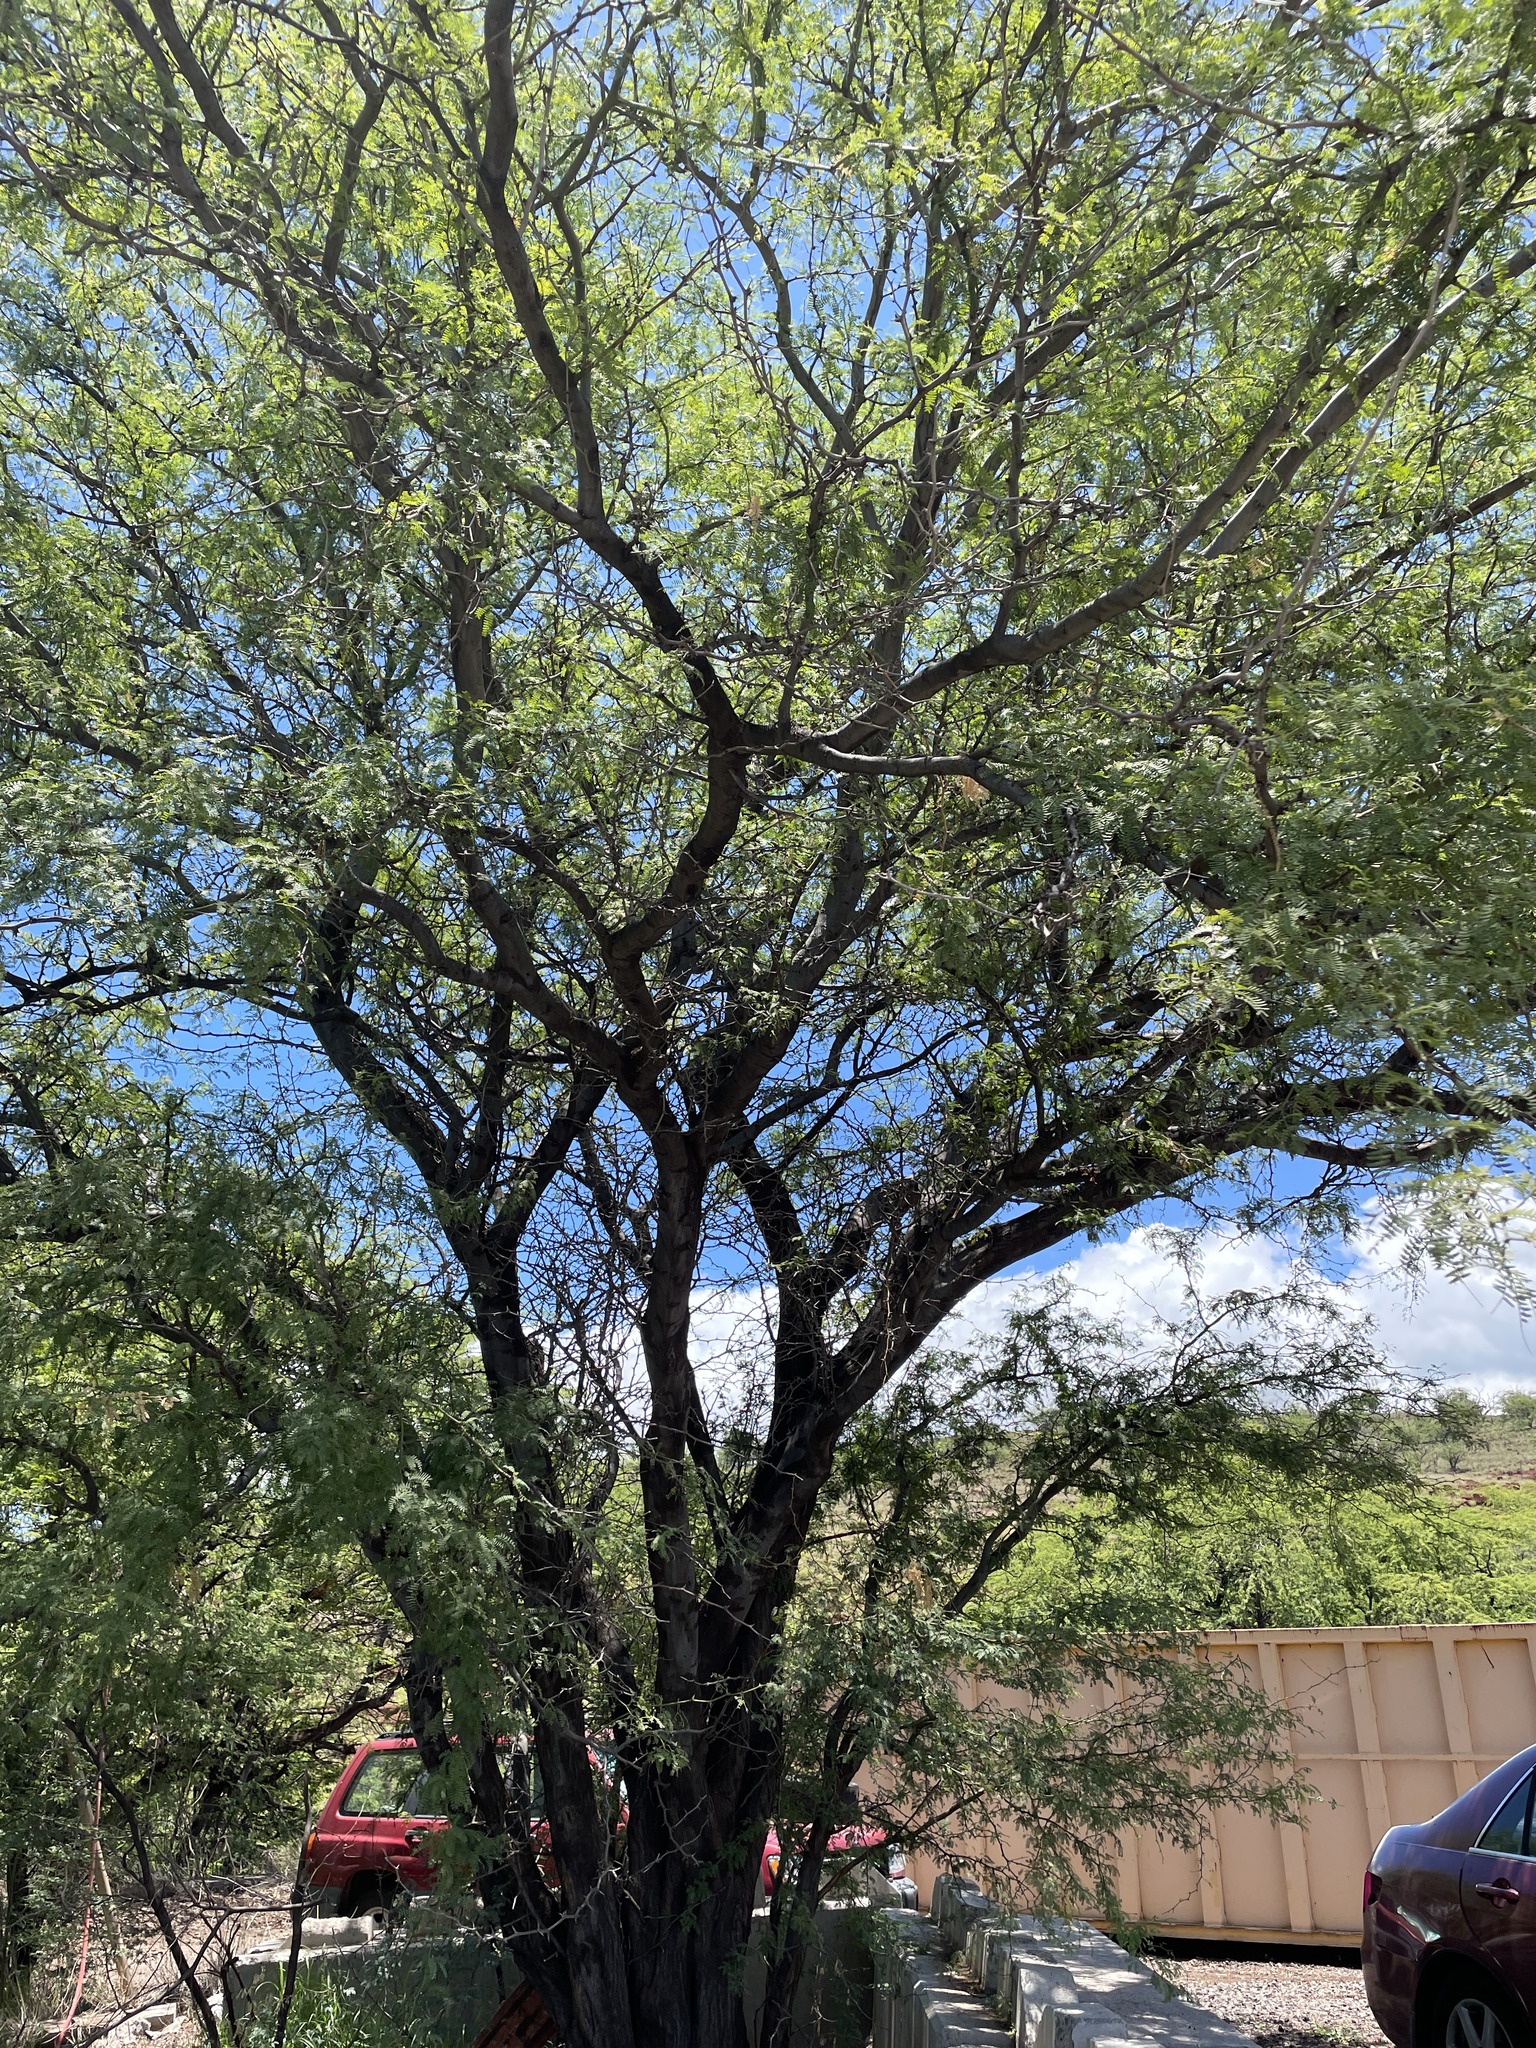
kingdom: Plantae
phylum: Tracheophyta
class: Magnoliopsida
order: Fabales
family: Fabaceae
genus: Prosopis
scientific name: Prosopis pallida
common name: Mesquite
